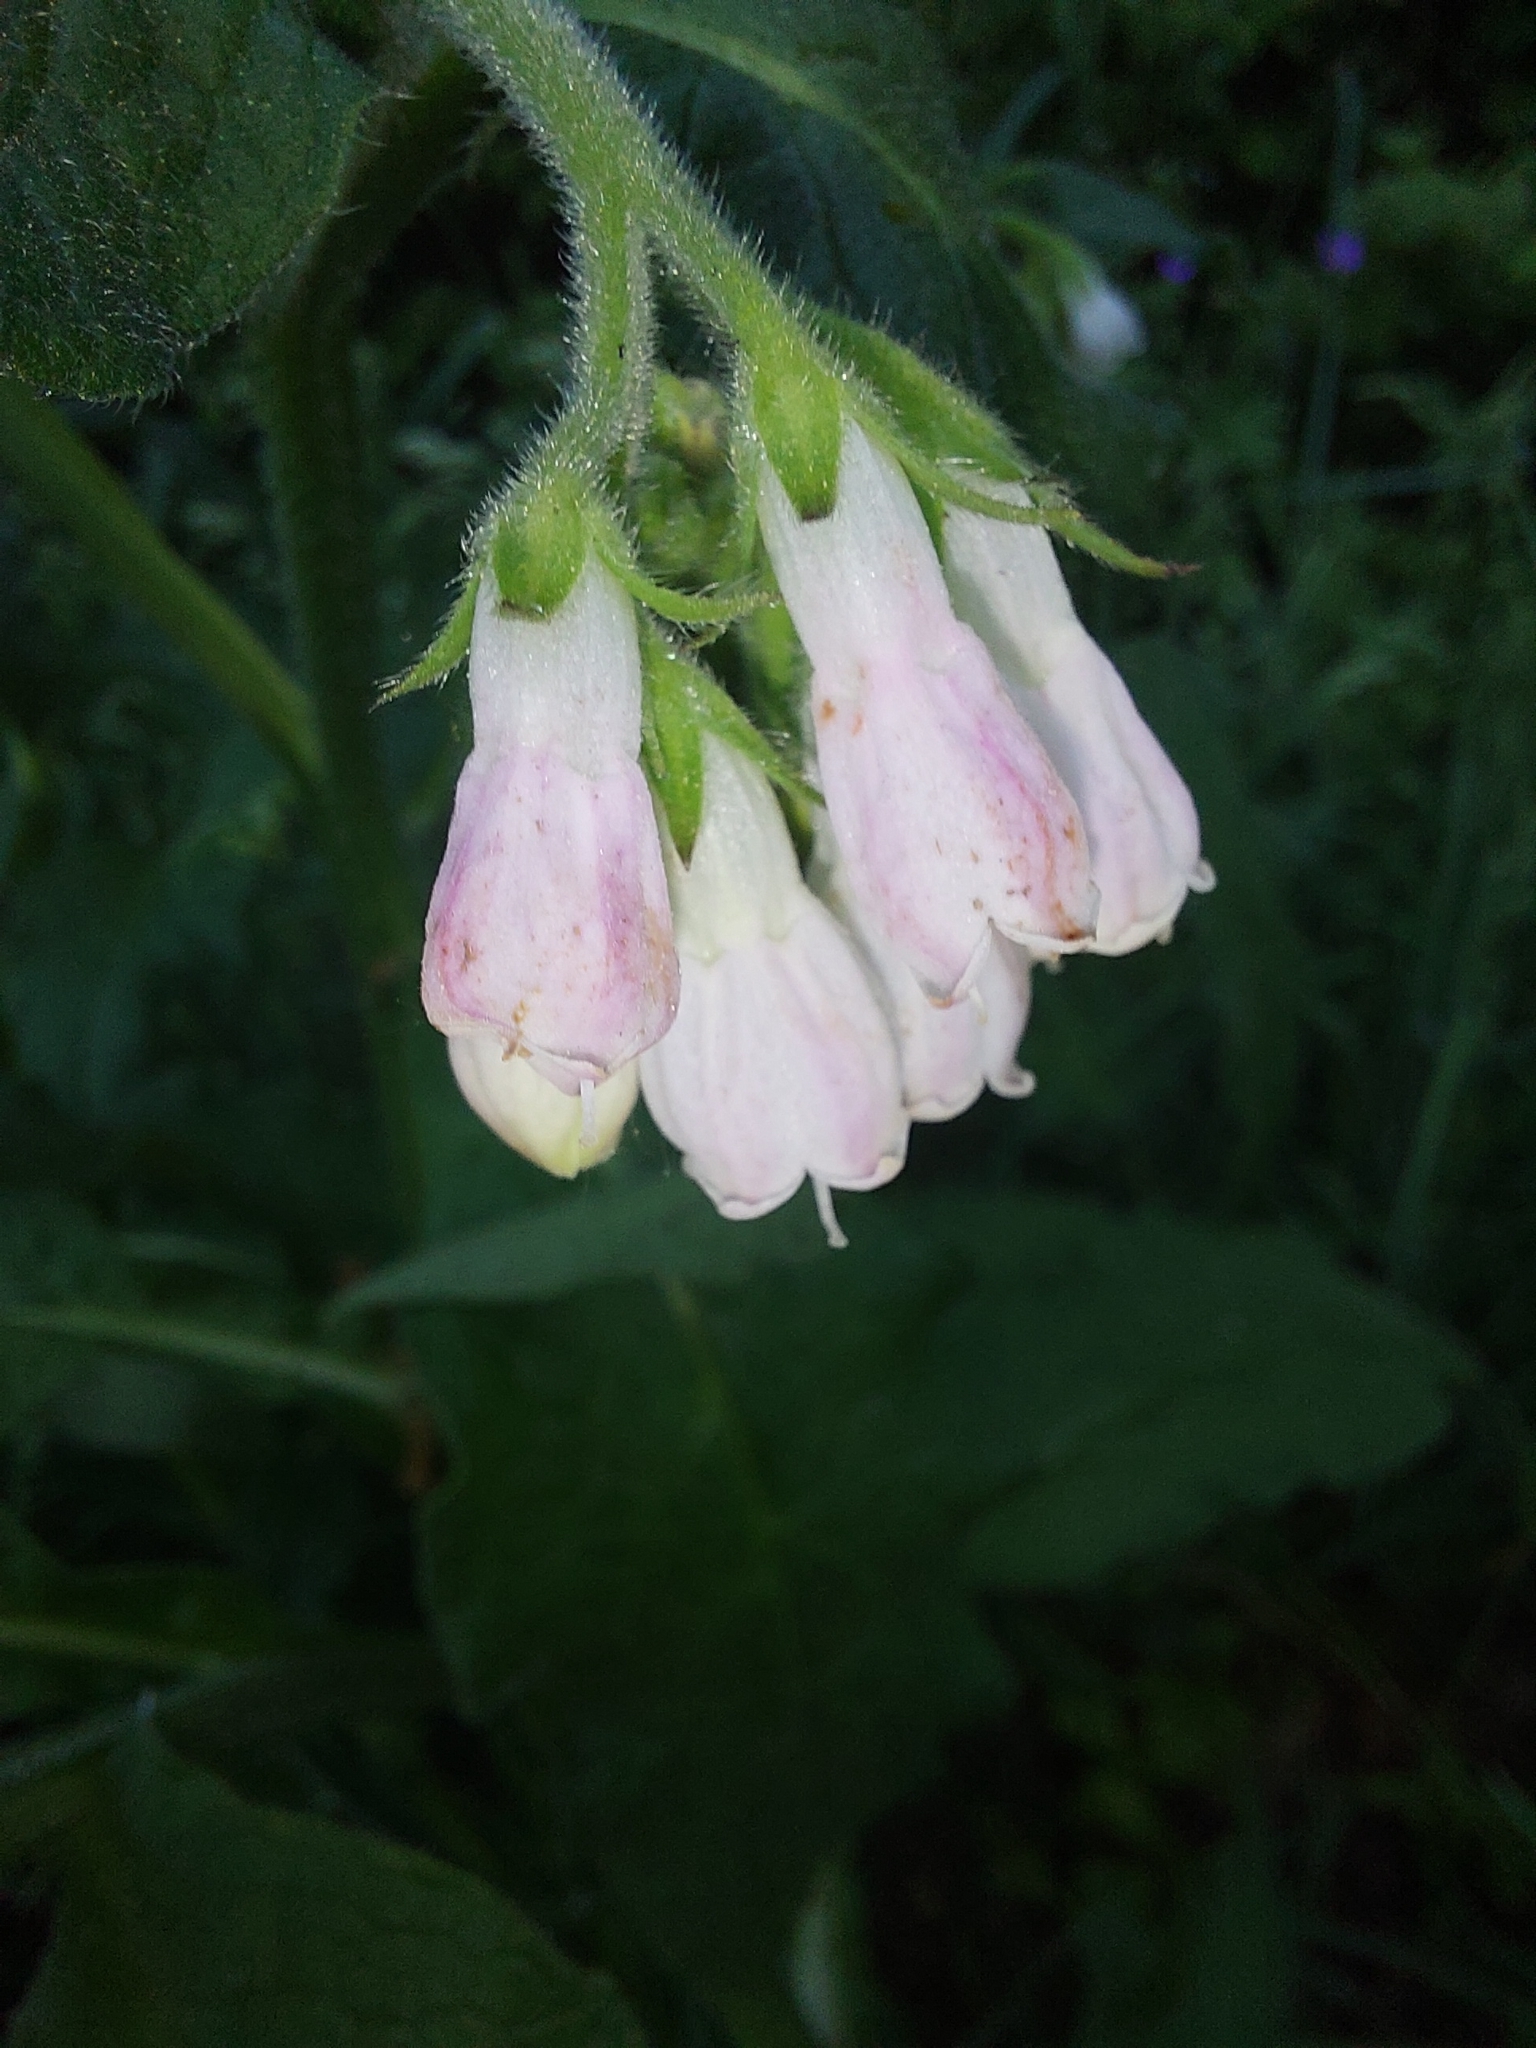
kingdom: Plantae
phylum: Tracheophyta
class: Magnoliopsida
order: Boraginales
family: Boraginaceae
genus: Symphytum
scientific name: Symphytum officinale
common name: Common comfrey
